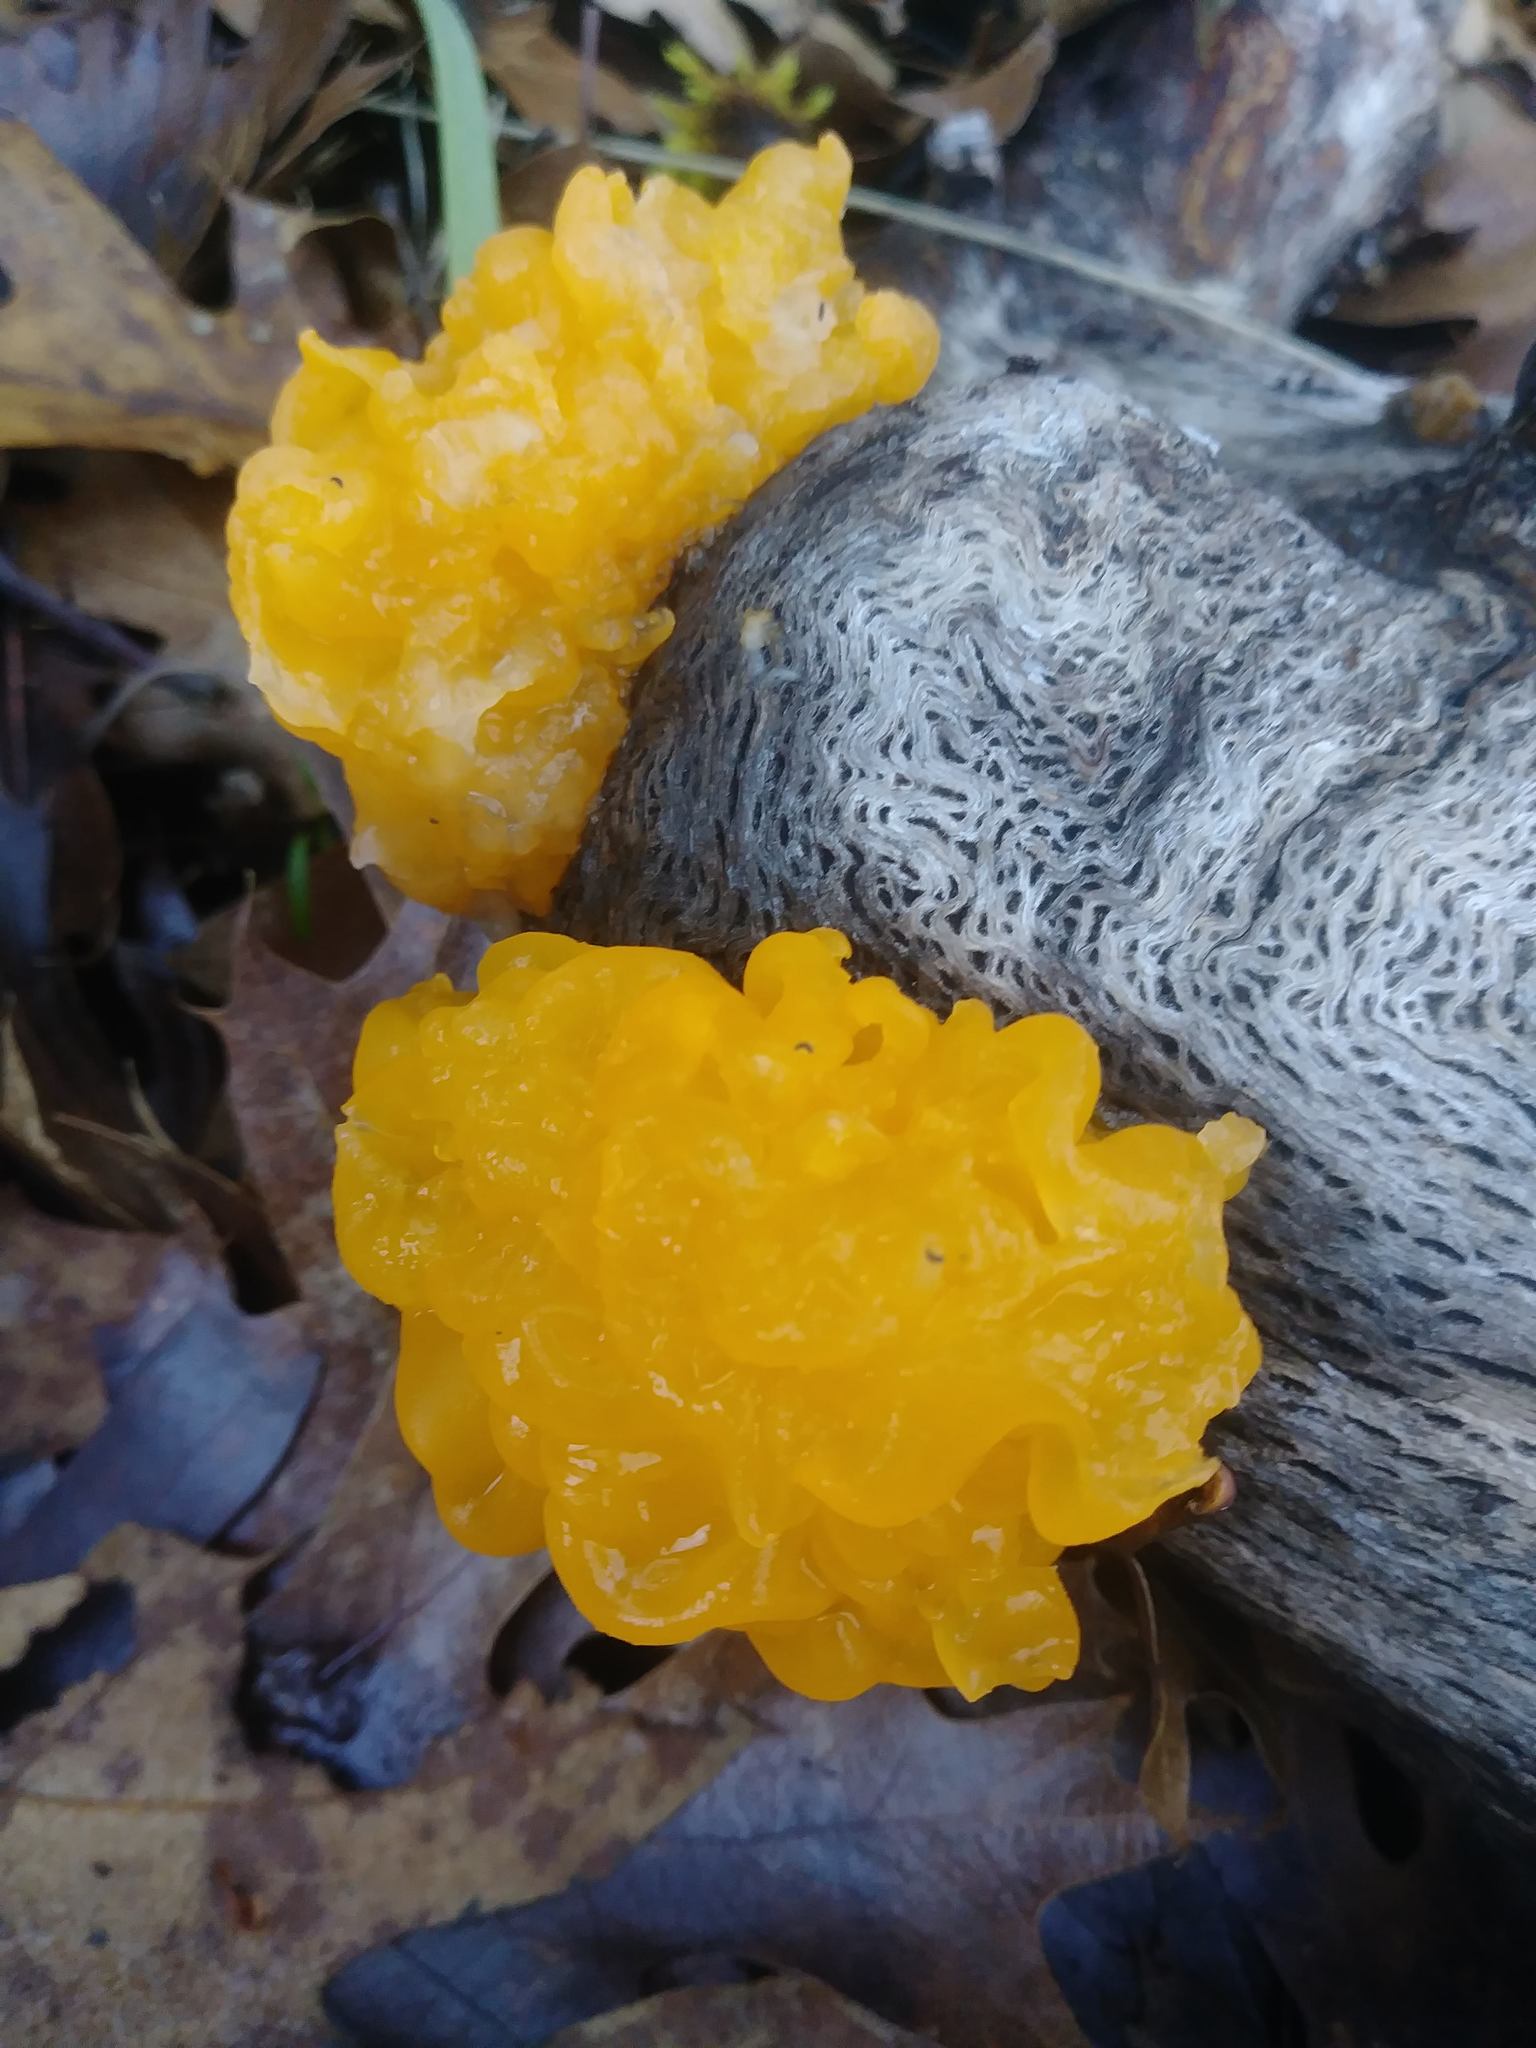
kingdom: Fungi
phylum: Basidiomycota
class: Tremellomycetes
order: Tremellales
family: Tremellaceae
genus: Tremella
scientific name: Tremella mesenterica
